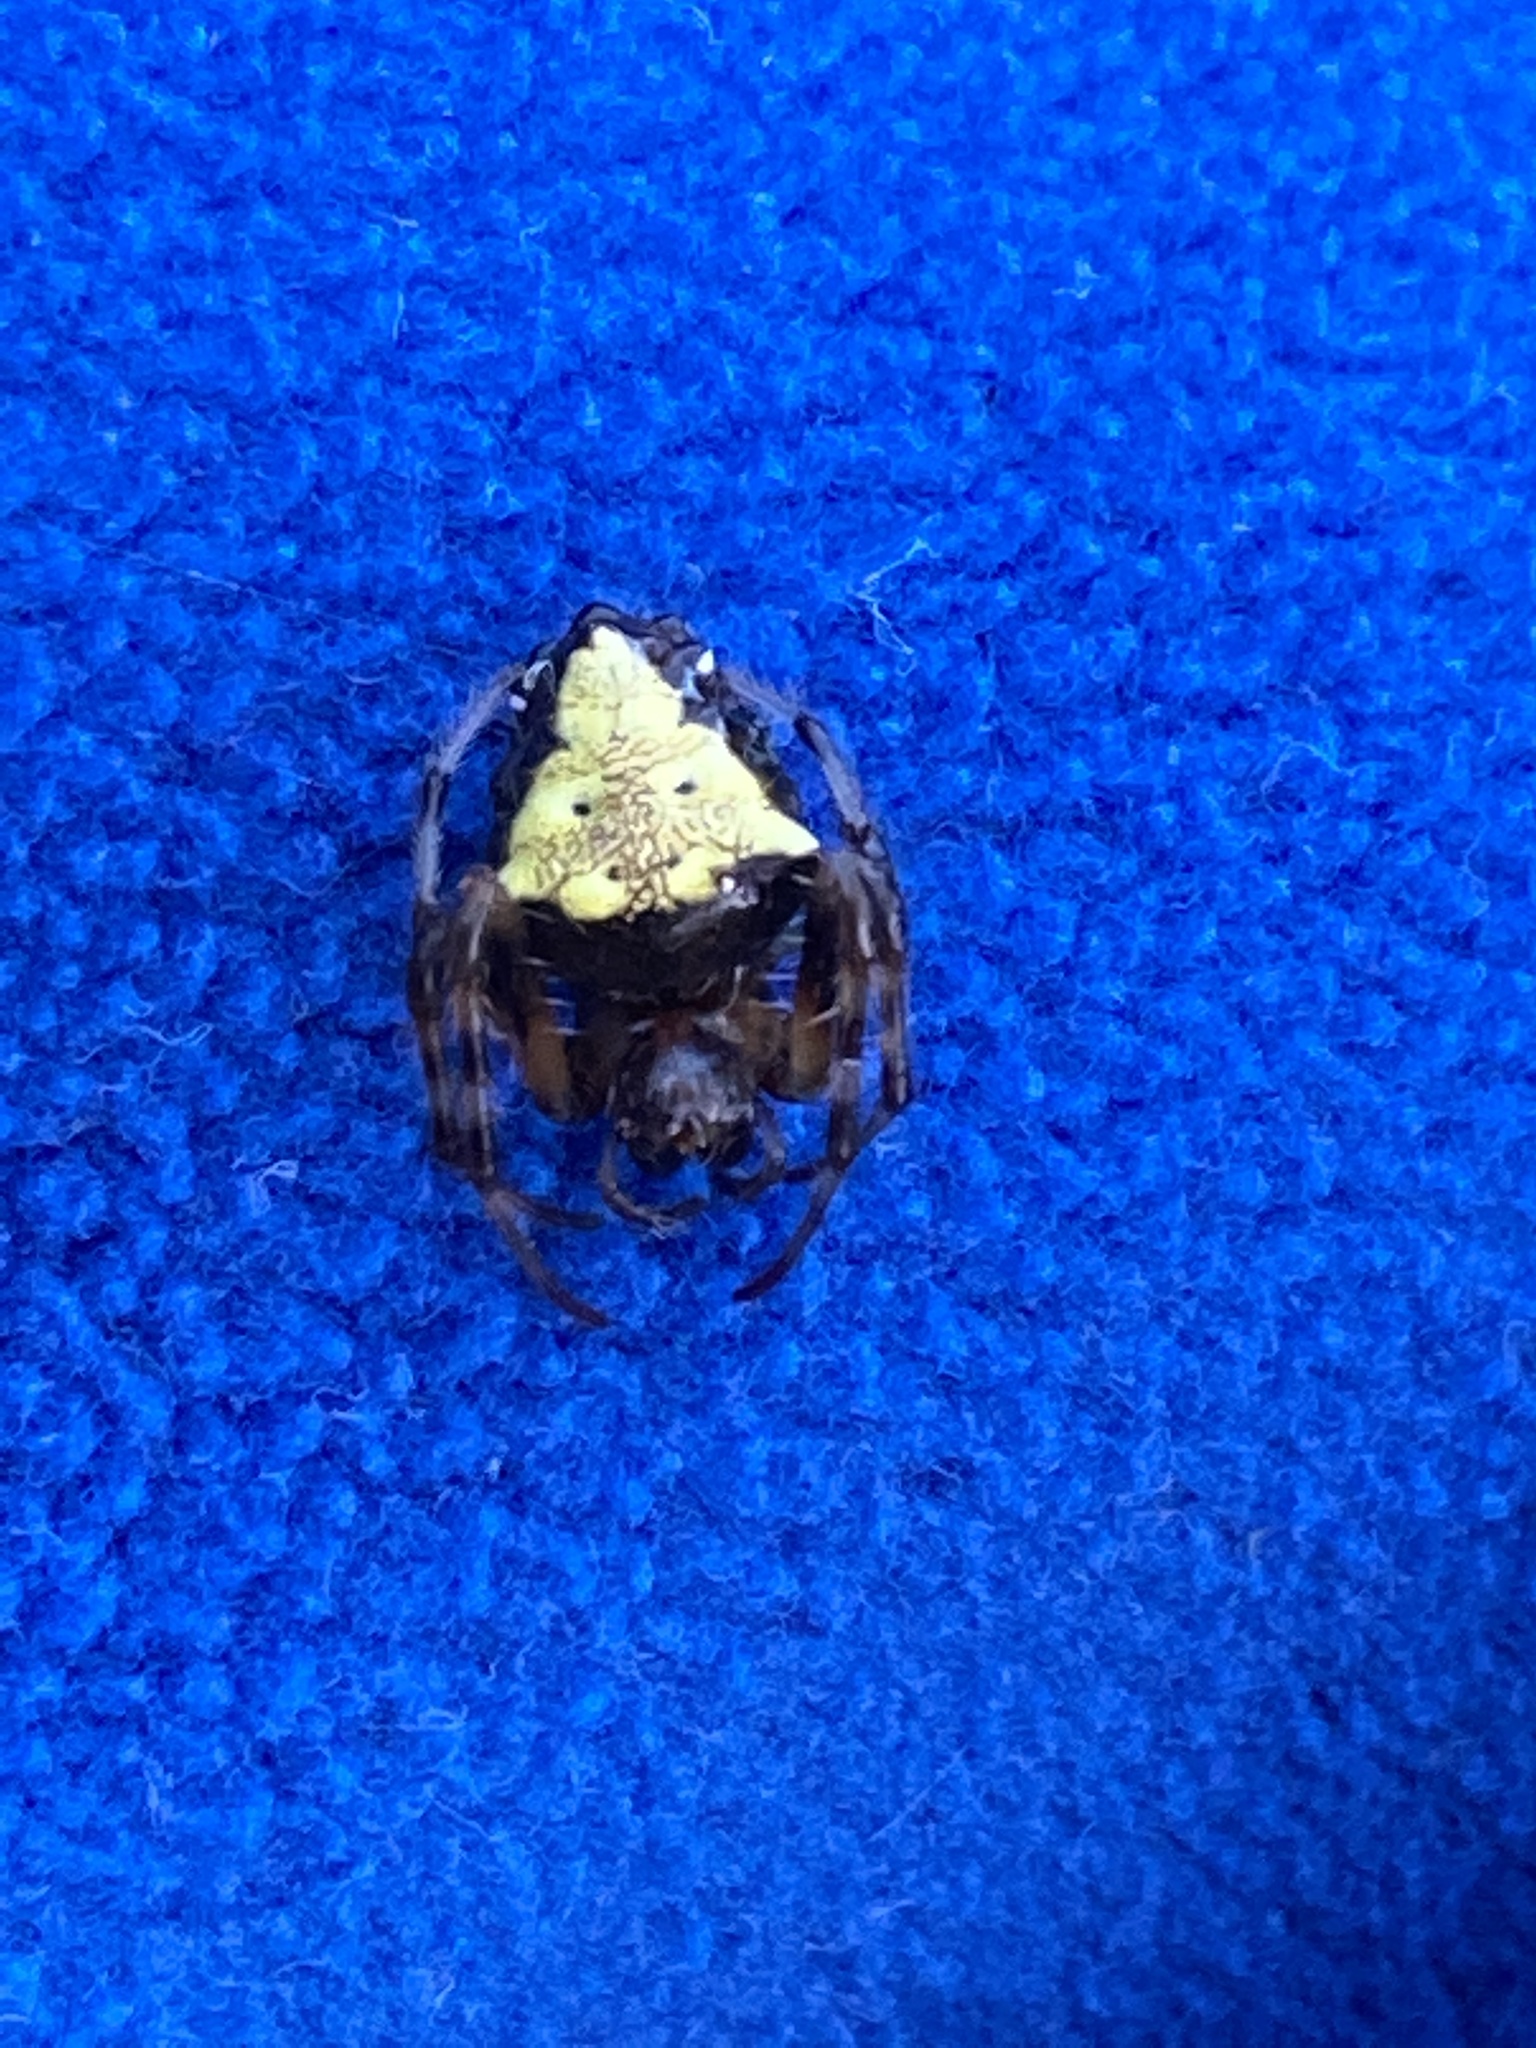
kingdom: Animalia
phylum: Arthropoda
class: Arachnida
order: Araneae
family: Araneidae
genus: Verrucosa
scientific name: Verrucosa arenata
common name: Orb weavers
